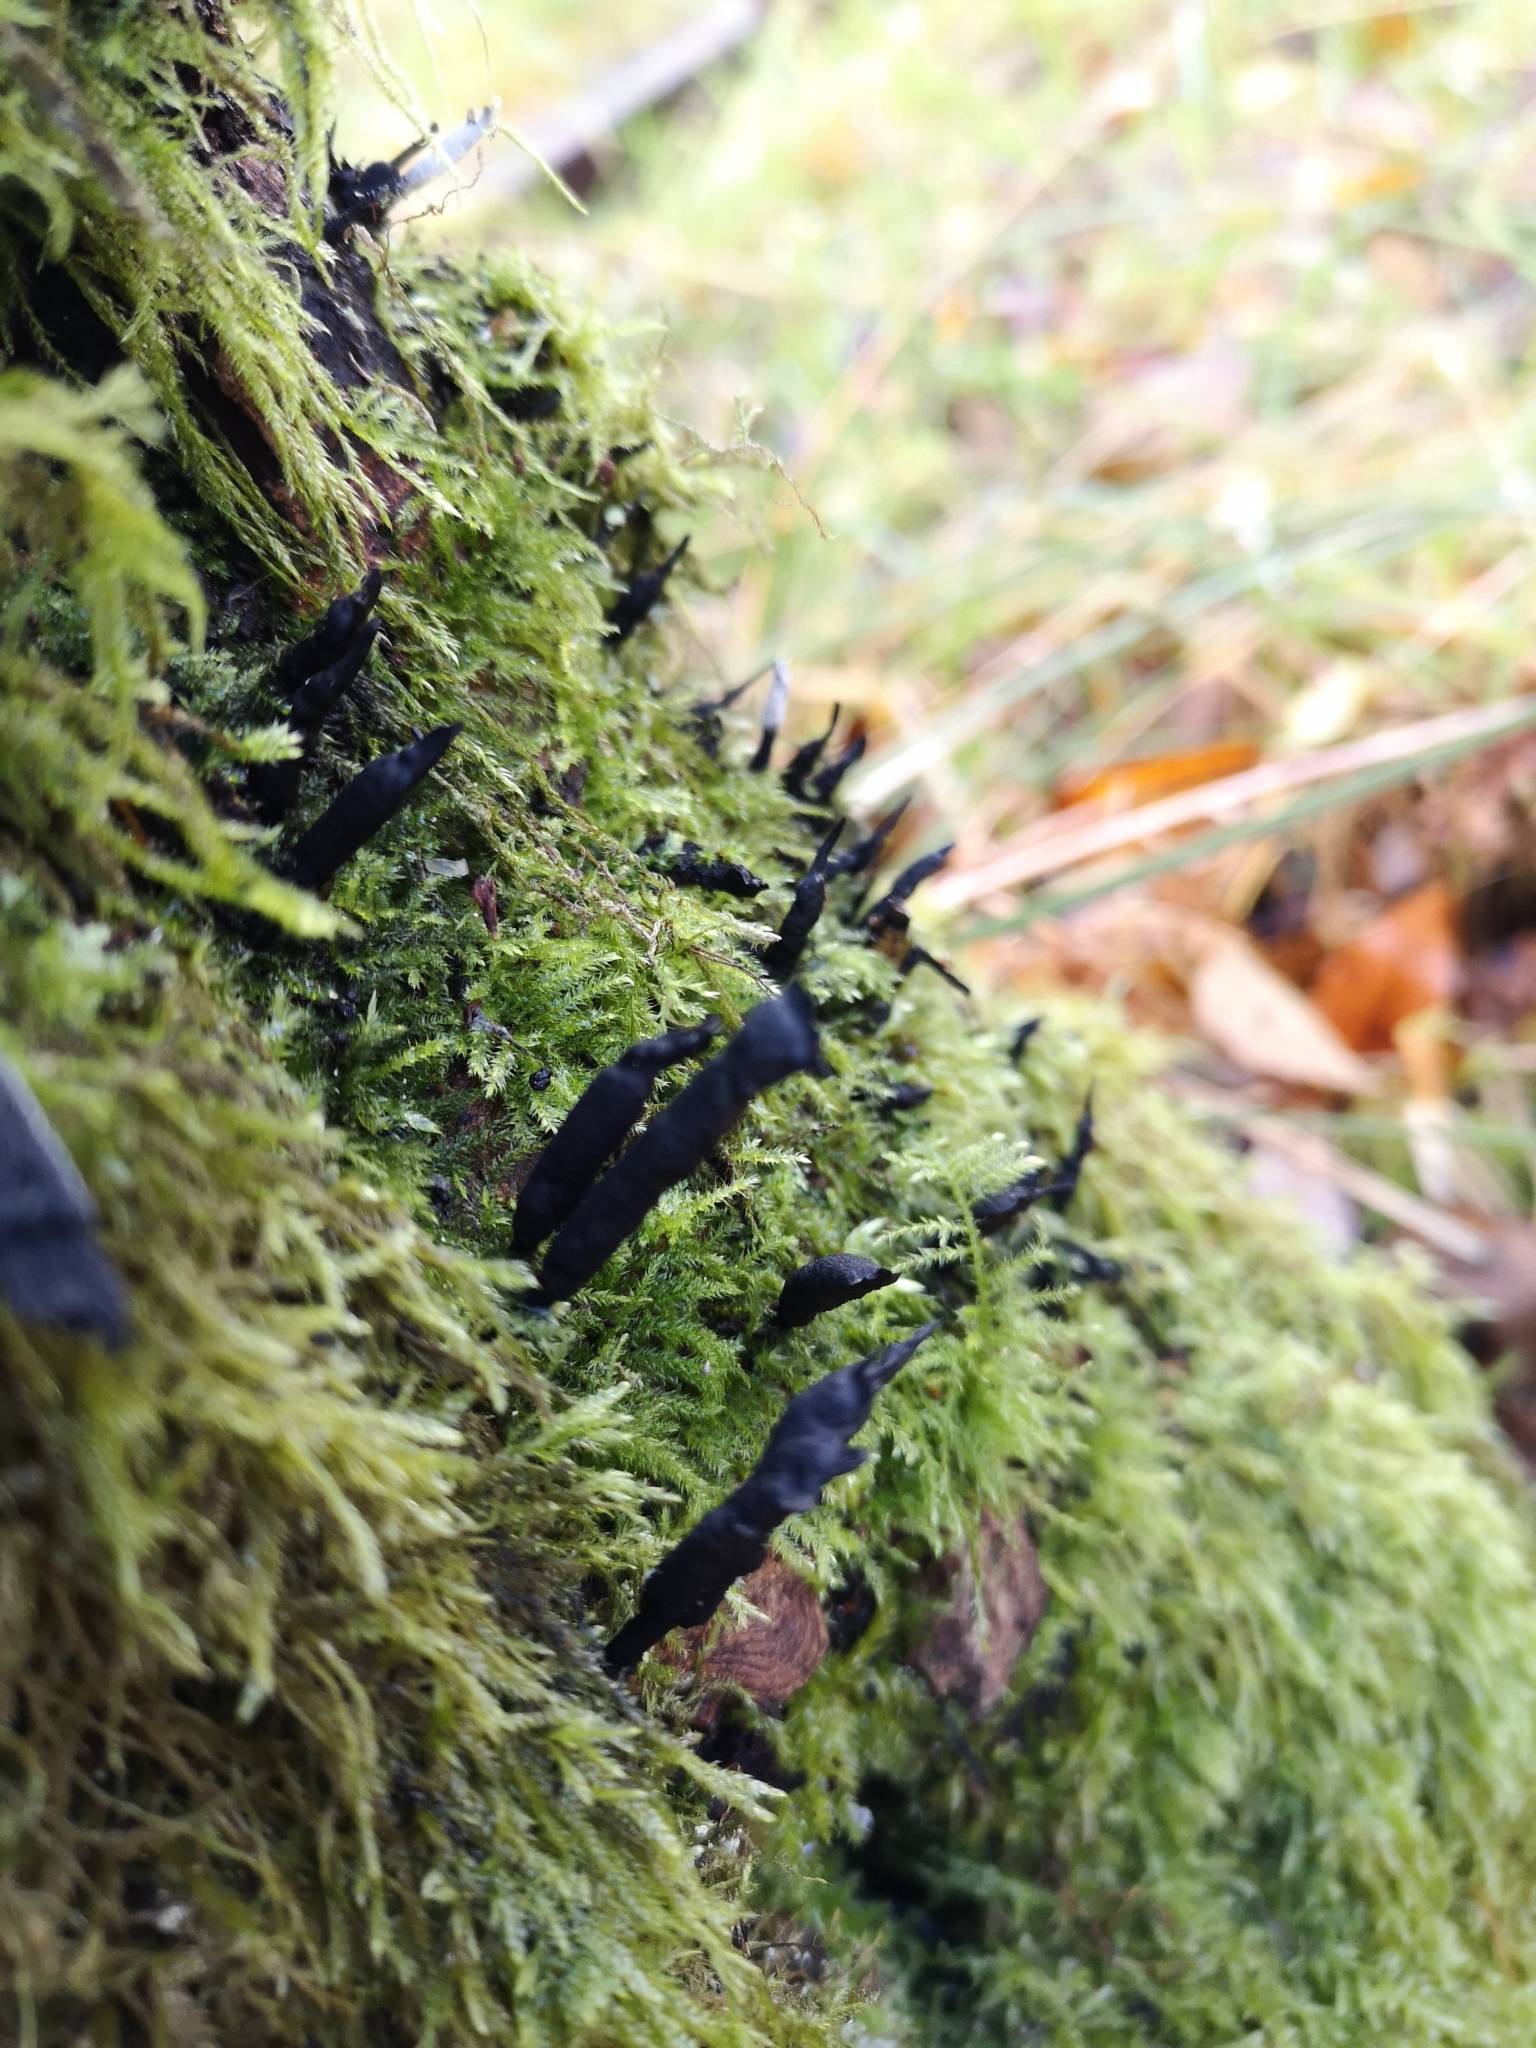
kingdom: Fungi
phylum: Ascomycota
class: Sordariomycetes
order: Xylariales
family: Xylariaceae
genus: Xylaria
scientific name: Xylaria hypoxylon
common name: Candle-snuff fungus
